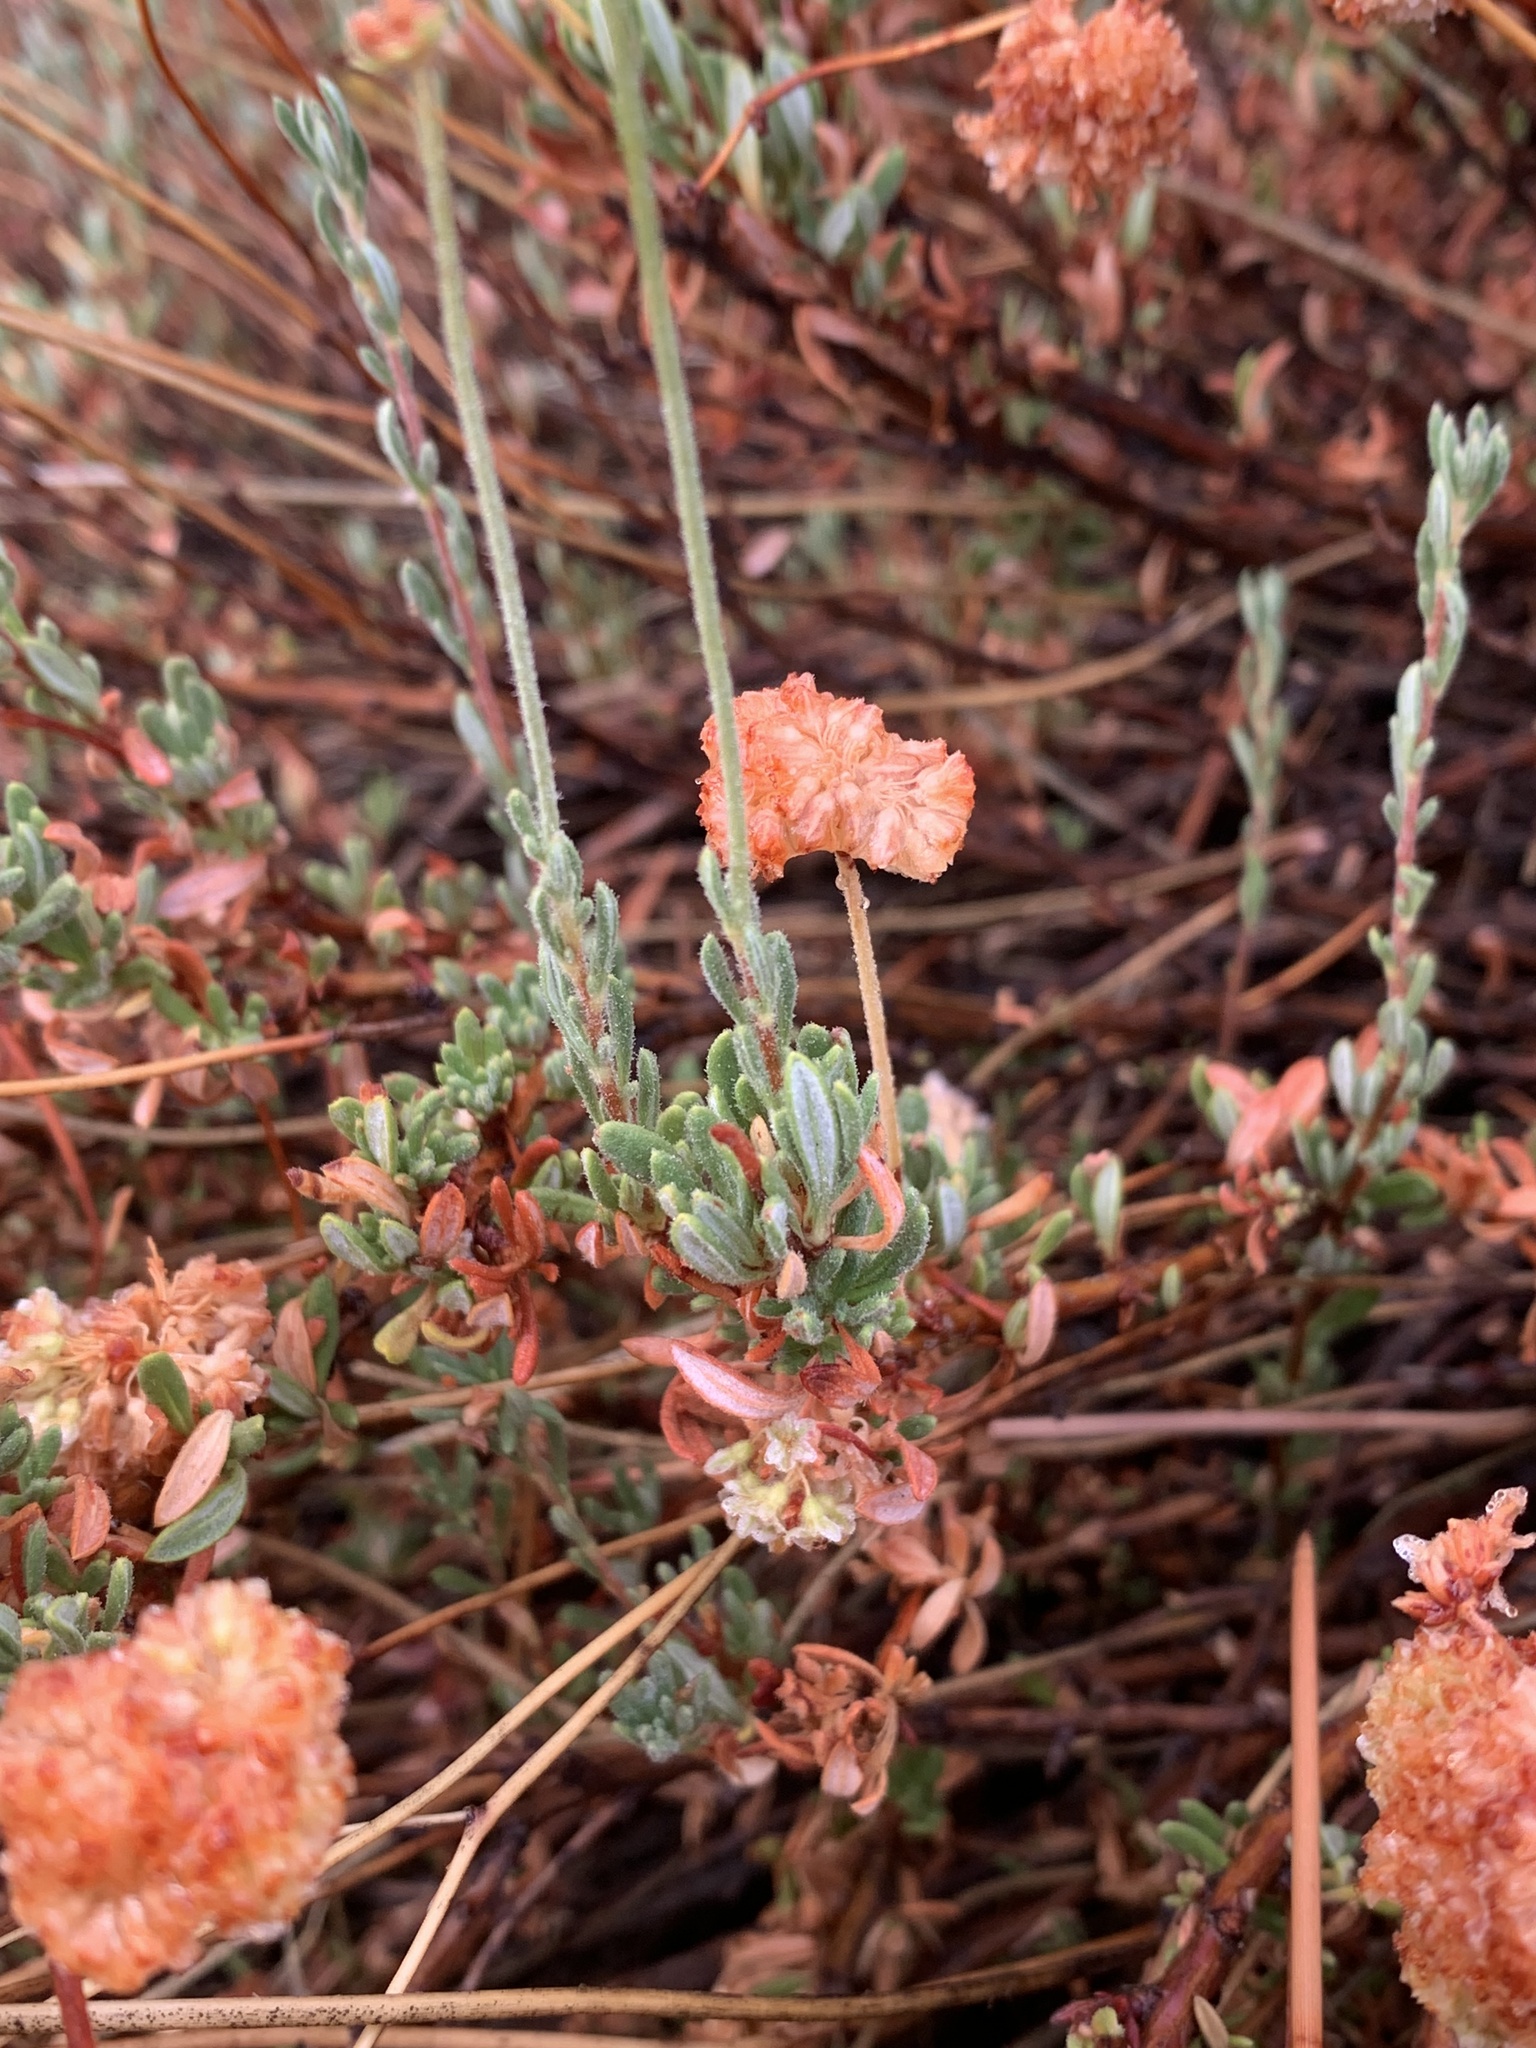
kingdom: Plantae
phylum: Tracheophyta
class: Magnoliopsida
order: Caryophyllales
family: Polygonaceae
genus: Eriogonum
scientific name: Eriogonum fasciculatum
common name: California wild buckwheat
